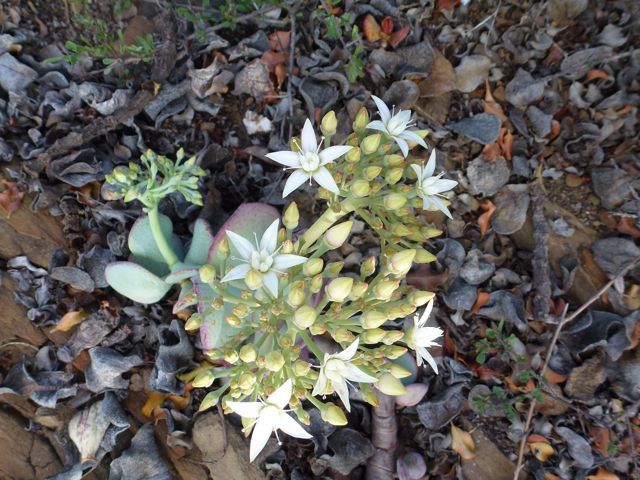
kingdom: Plantae
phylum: Tracheophyta
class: Magnoliopsida
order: Saxifragales
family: Crassulaceae
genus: Crassula
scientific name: Crassula arborescens
